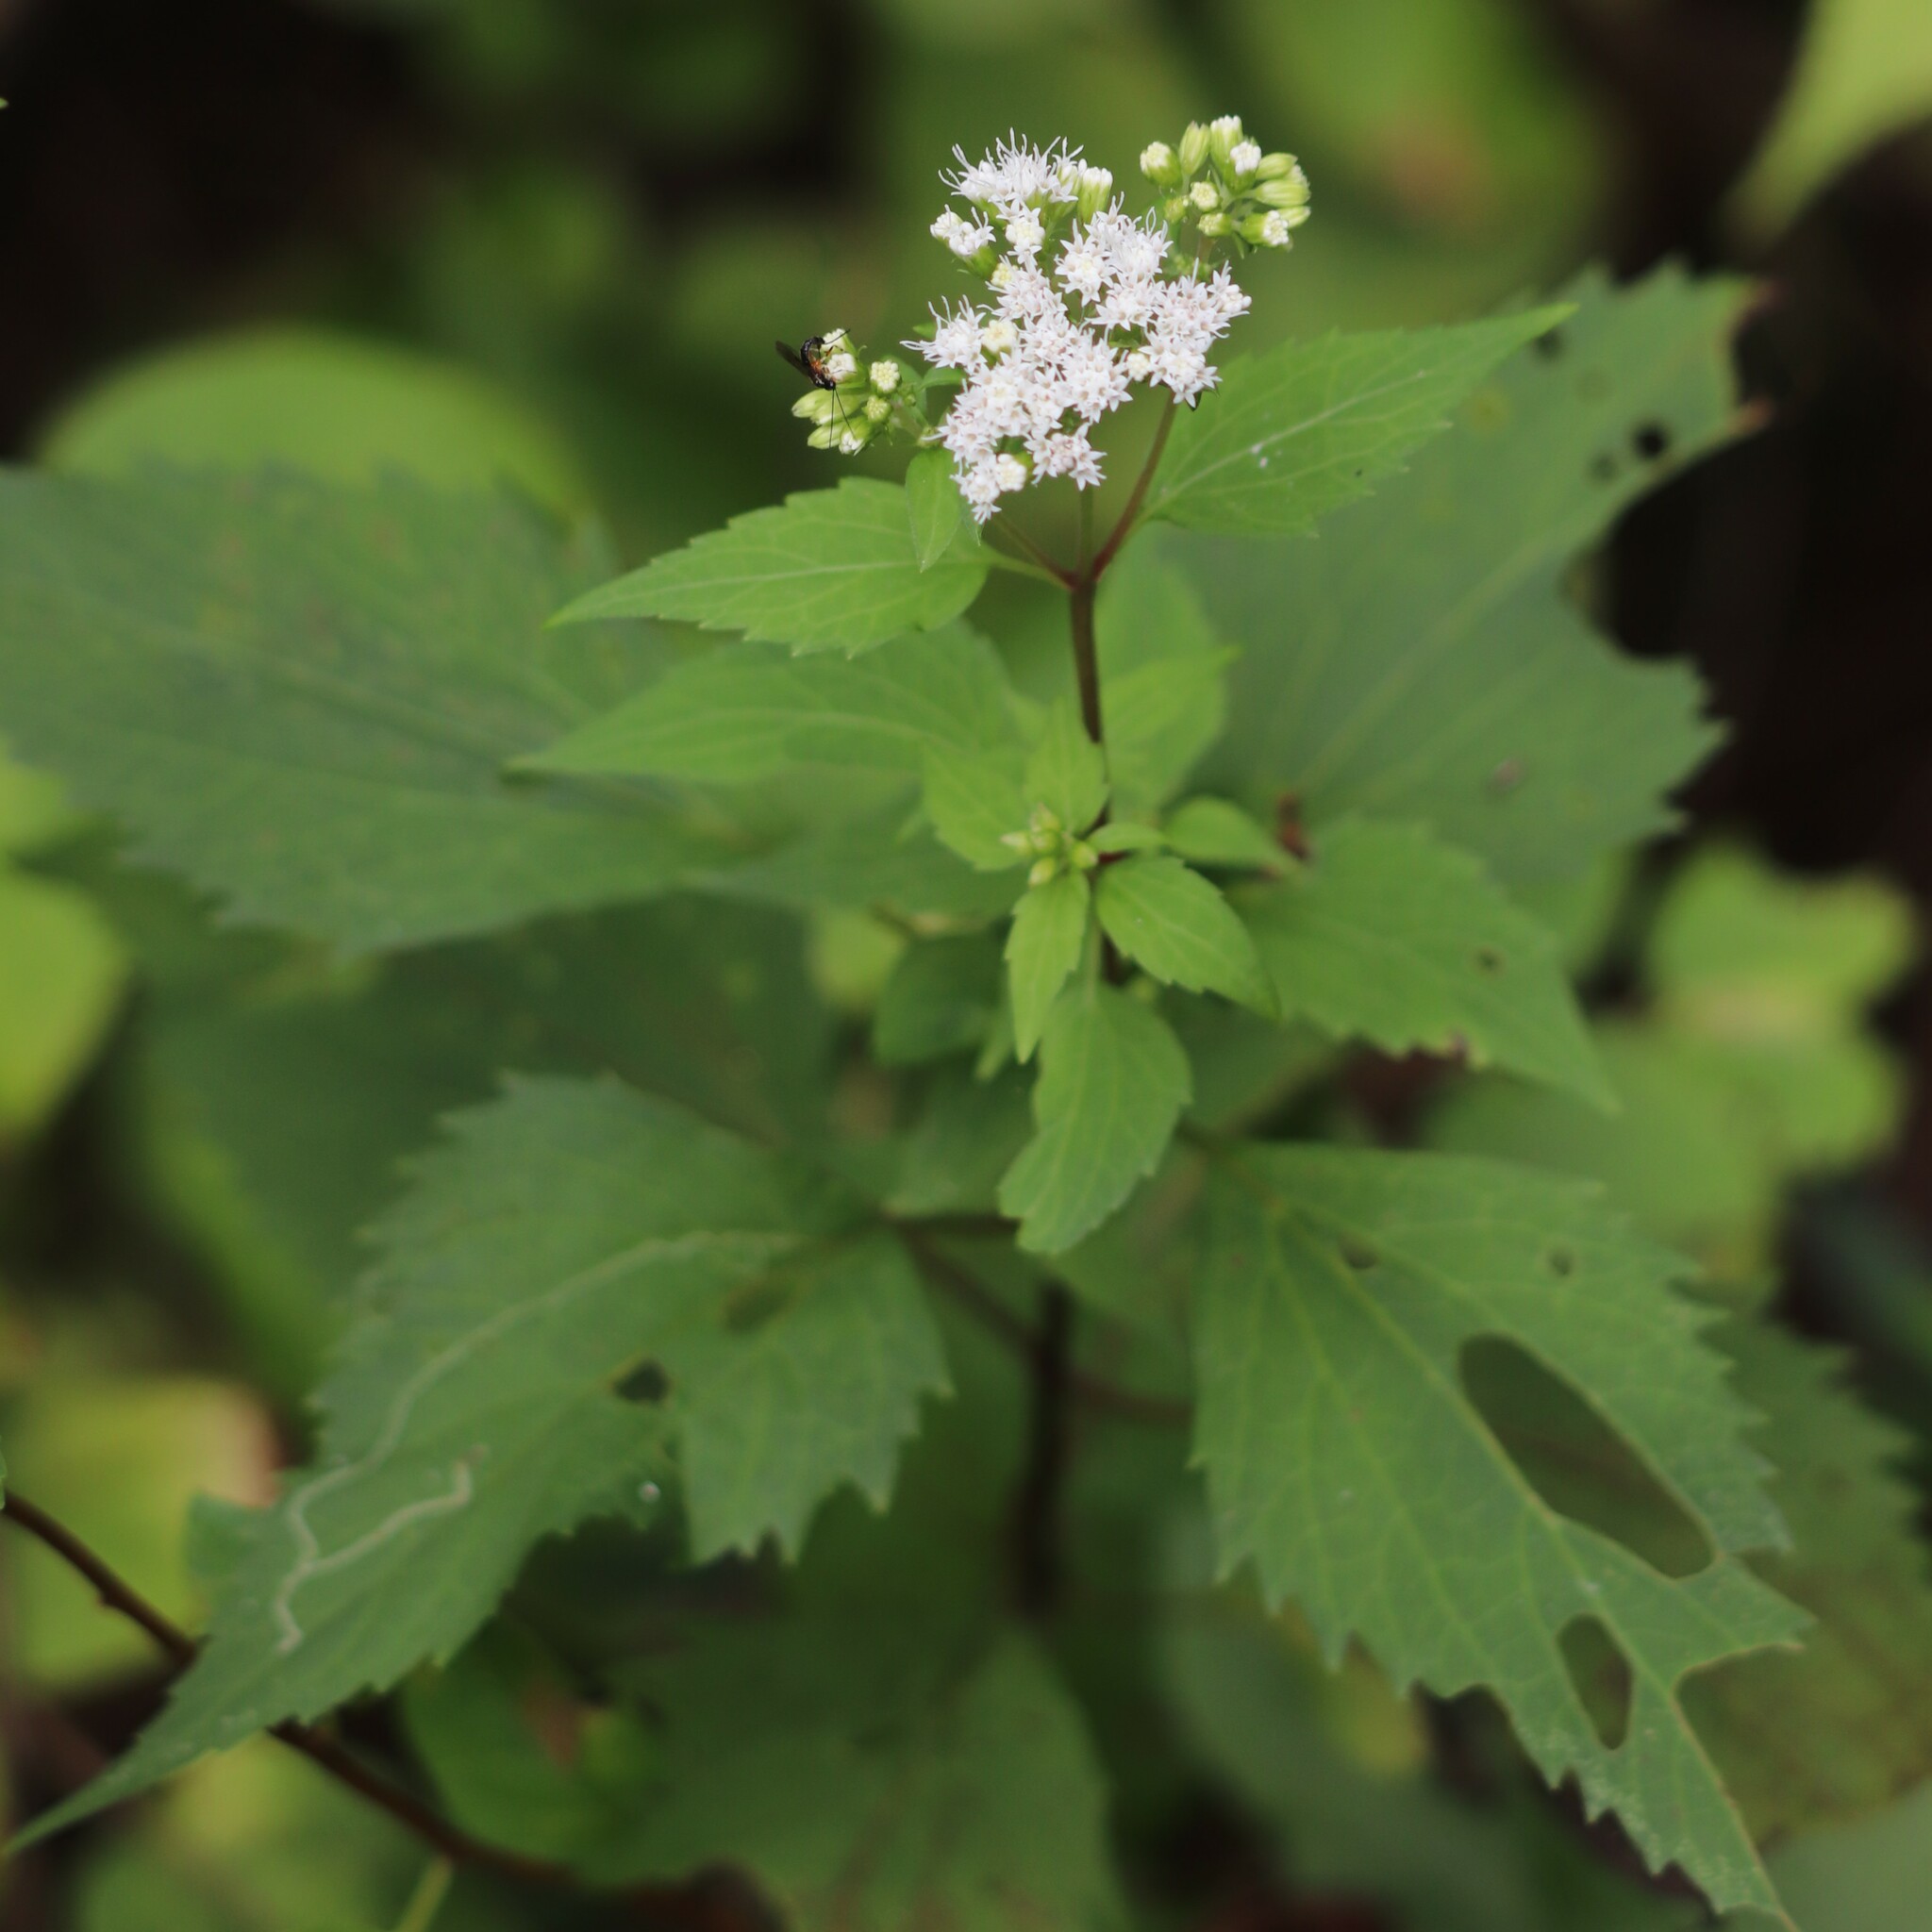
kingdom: Plantae
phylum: Tracheophyta
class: Magnoliopsida
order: Asterales
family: Asteraceae
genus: Ageratina
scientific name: Ageratina altissima
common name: White snakeroot
